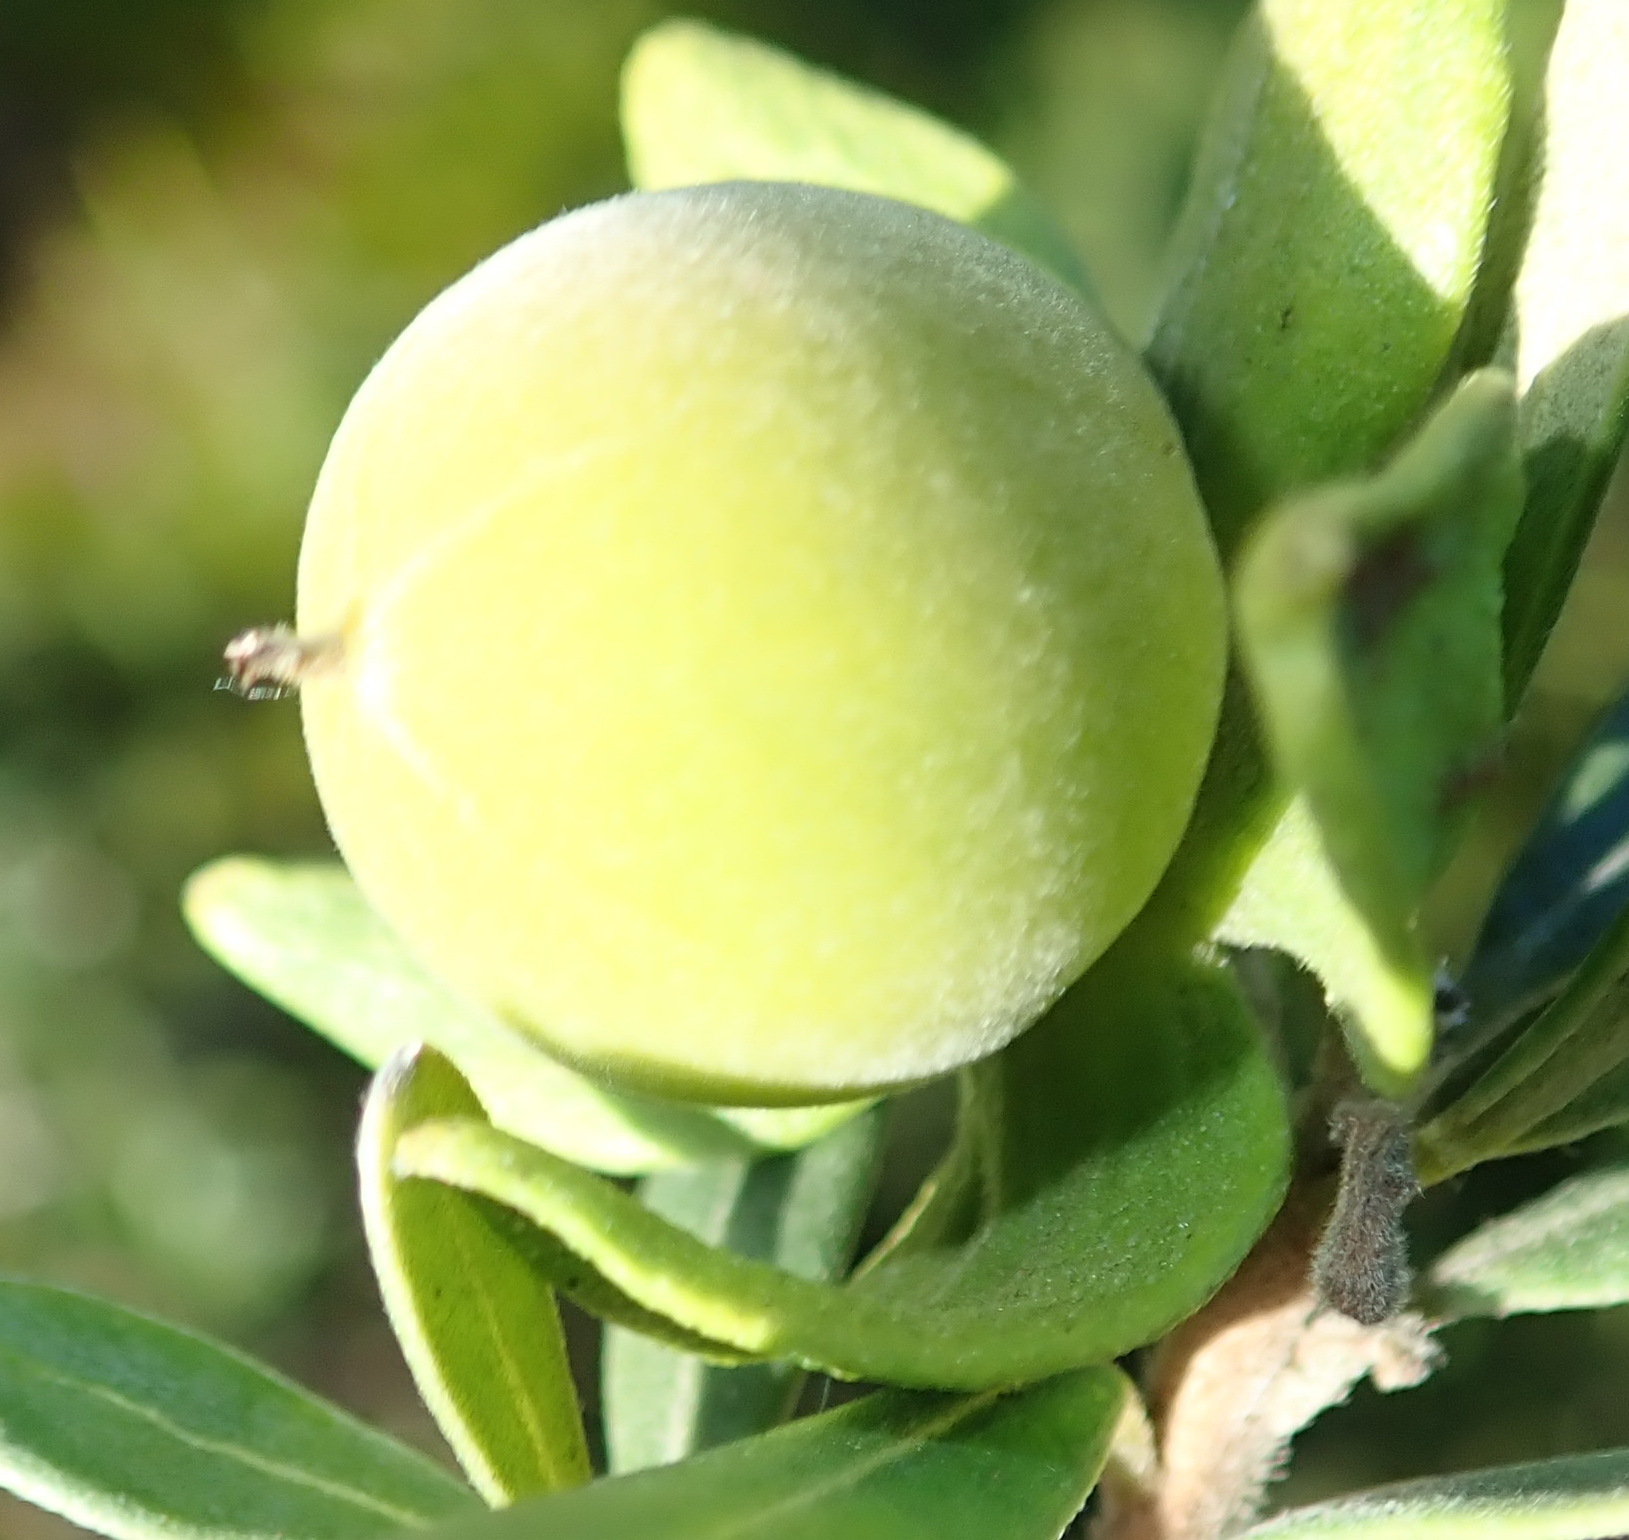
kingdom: Plantae
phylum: Tracheophyta
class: Magnoliopsida
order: Ericales
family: Ebenaceae
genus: Diospyros
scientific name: Diospyros dichrophylla
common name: Common star-apple
